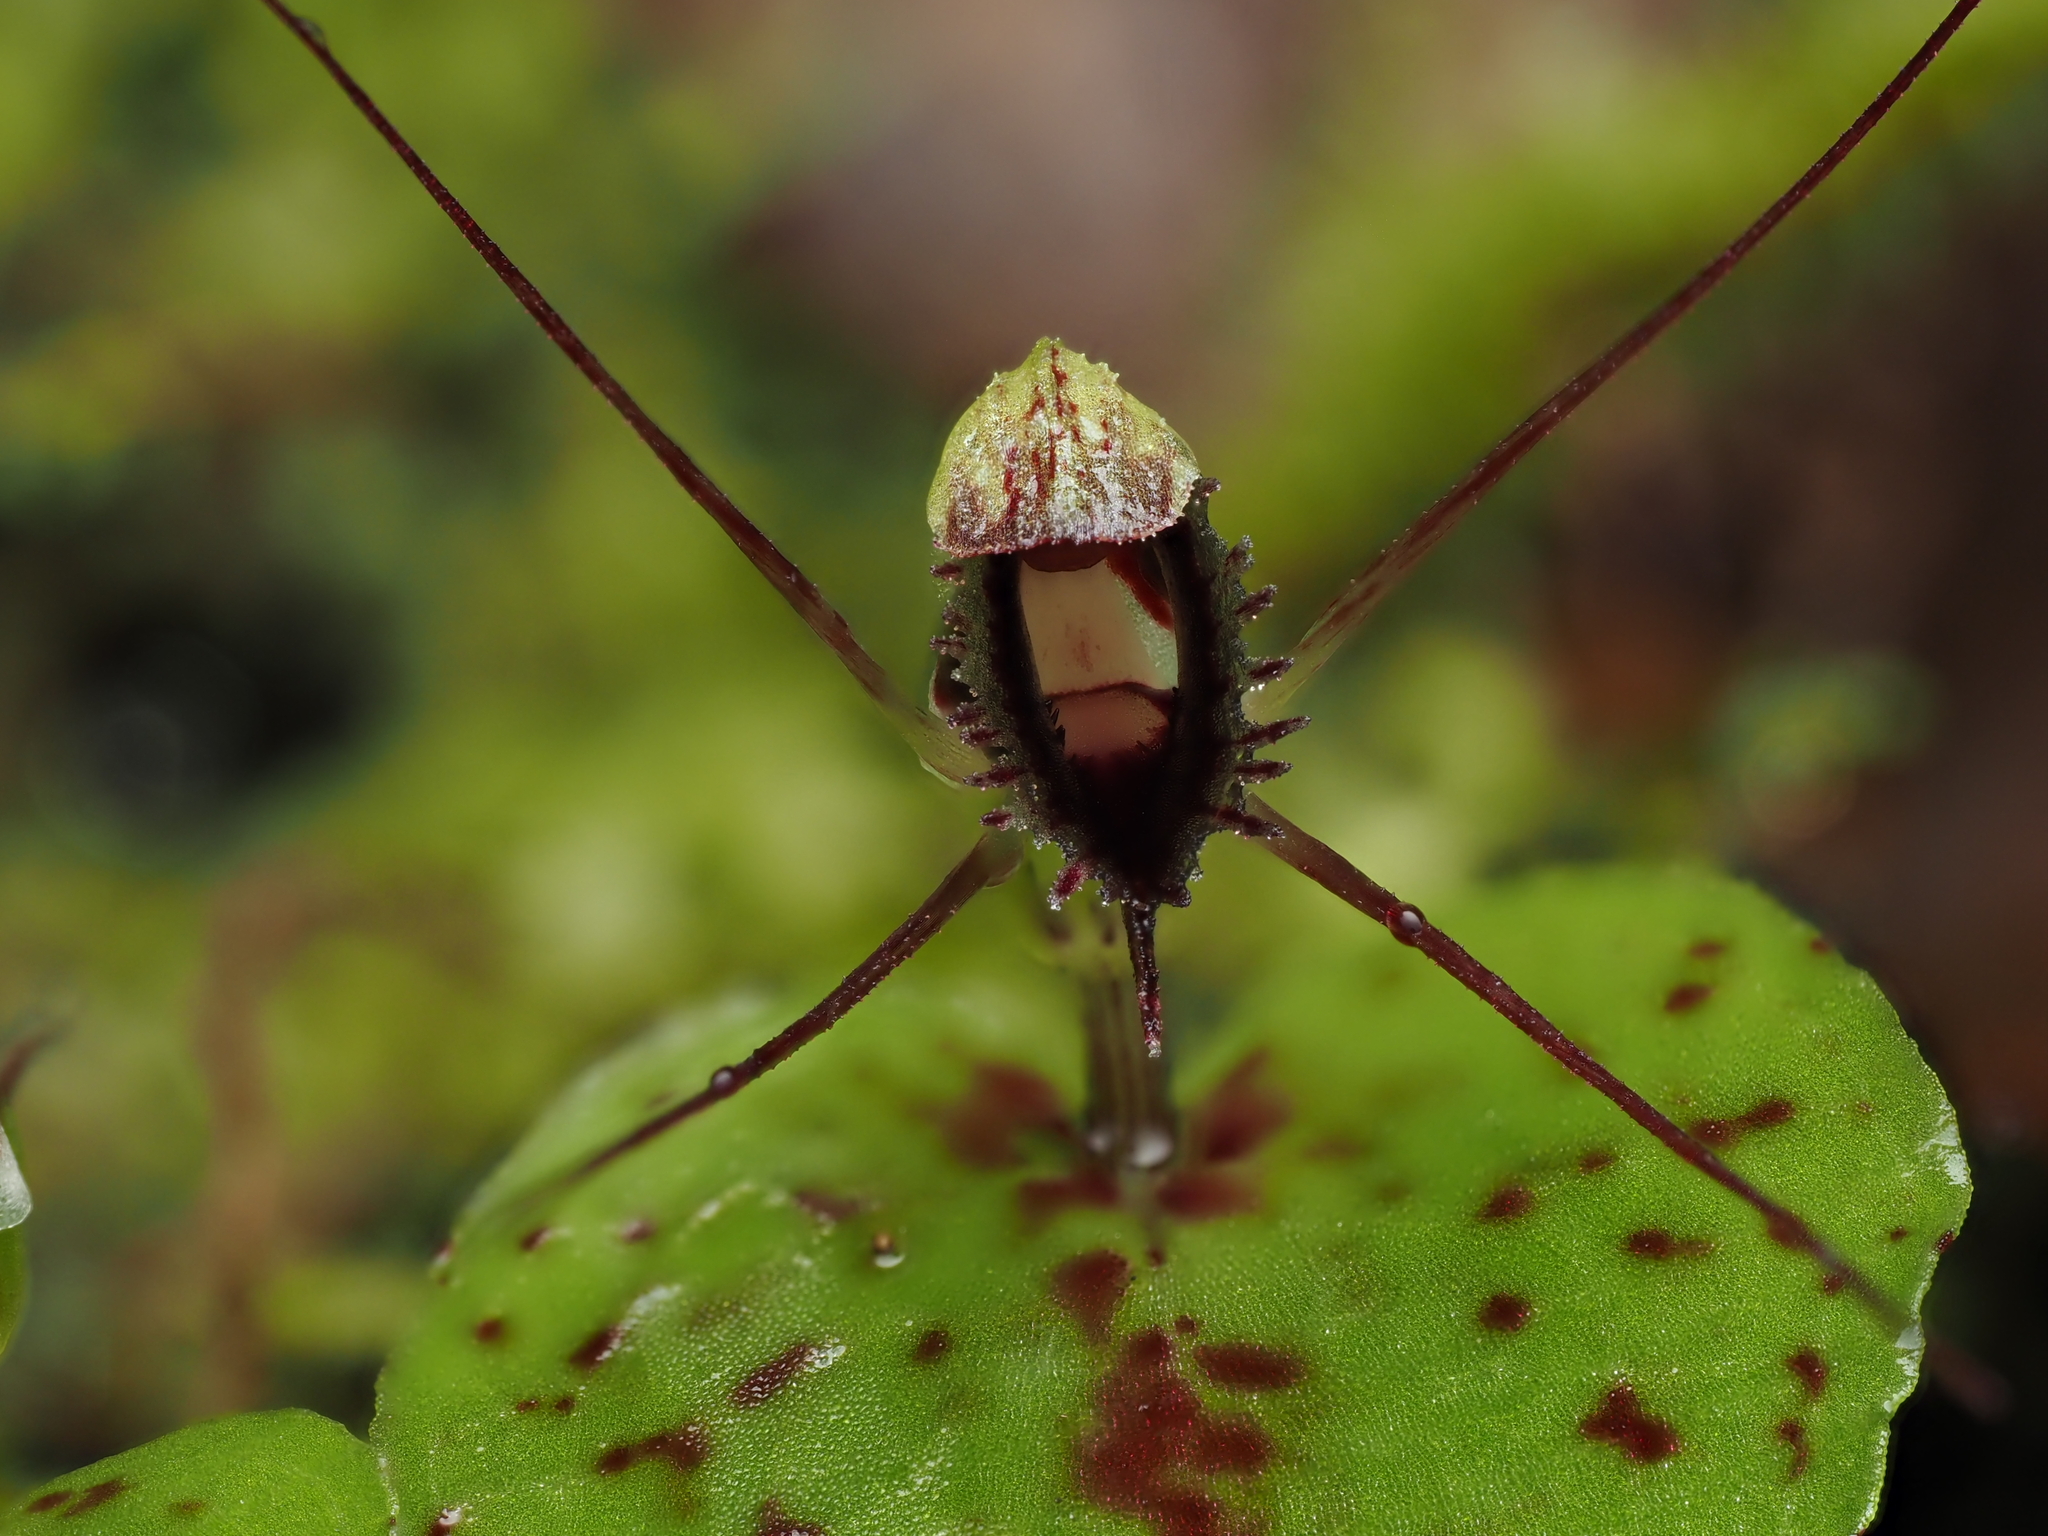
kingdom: Plantae
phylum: Tracheophyta
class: Liliopsida
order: Asparagales
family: Orchidaceae
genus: Corybas
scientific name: Corybas oblongus
